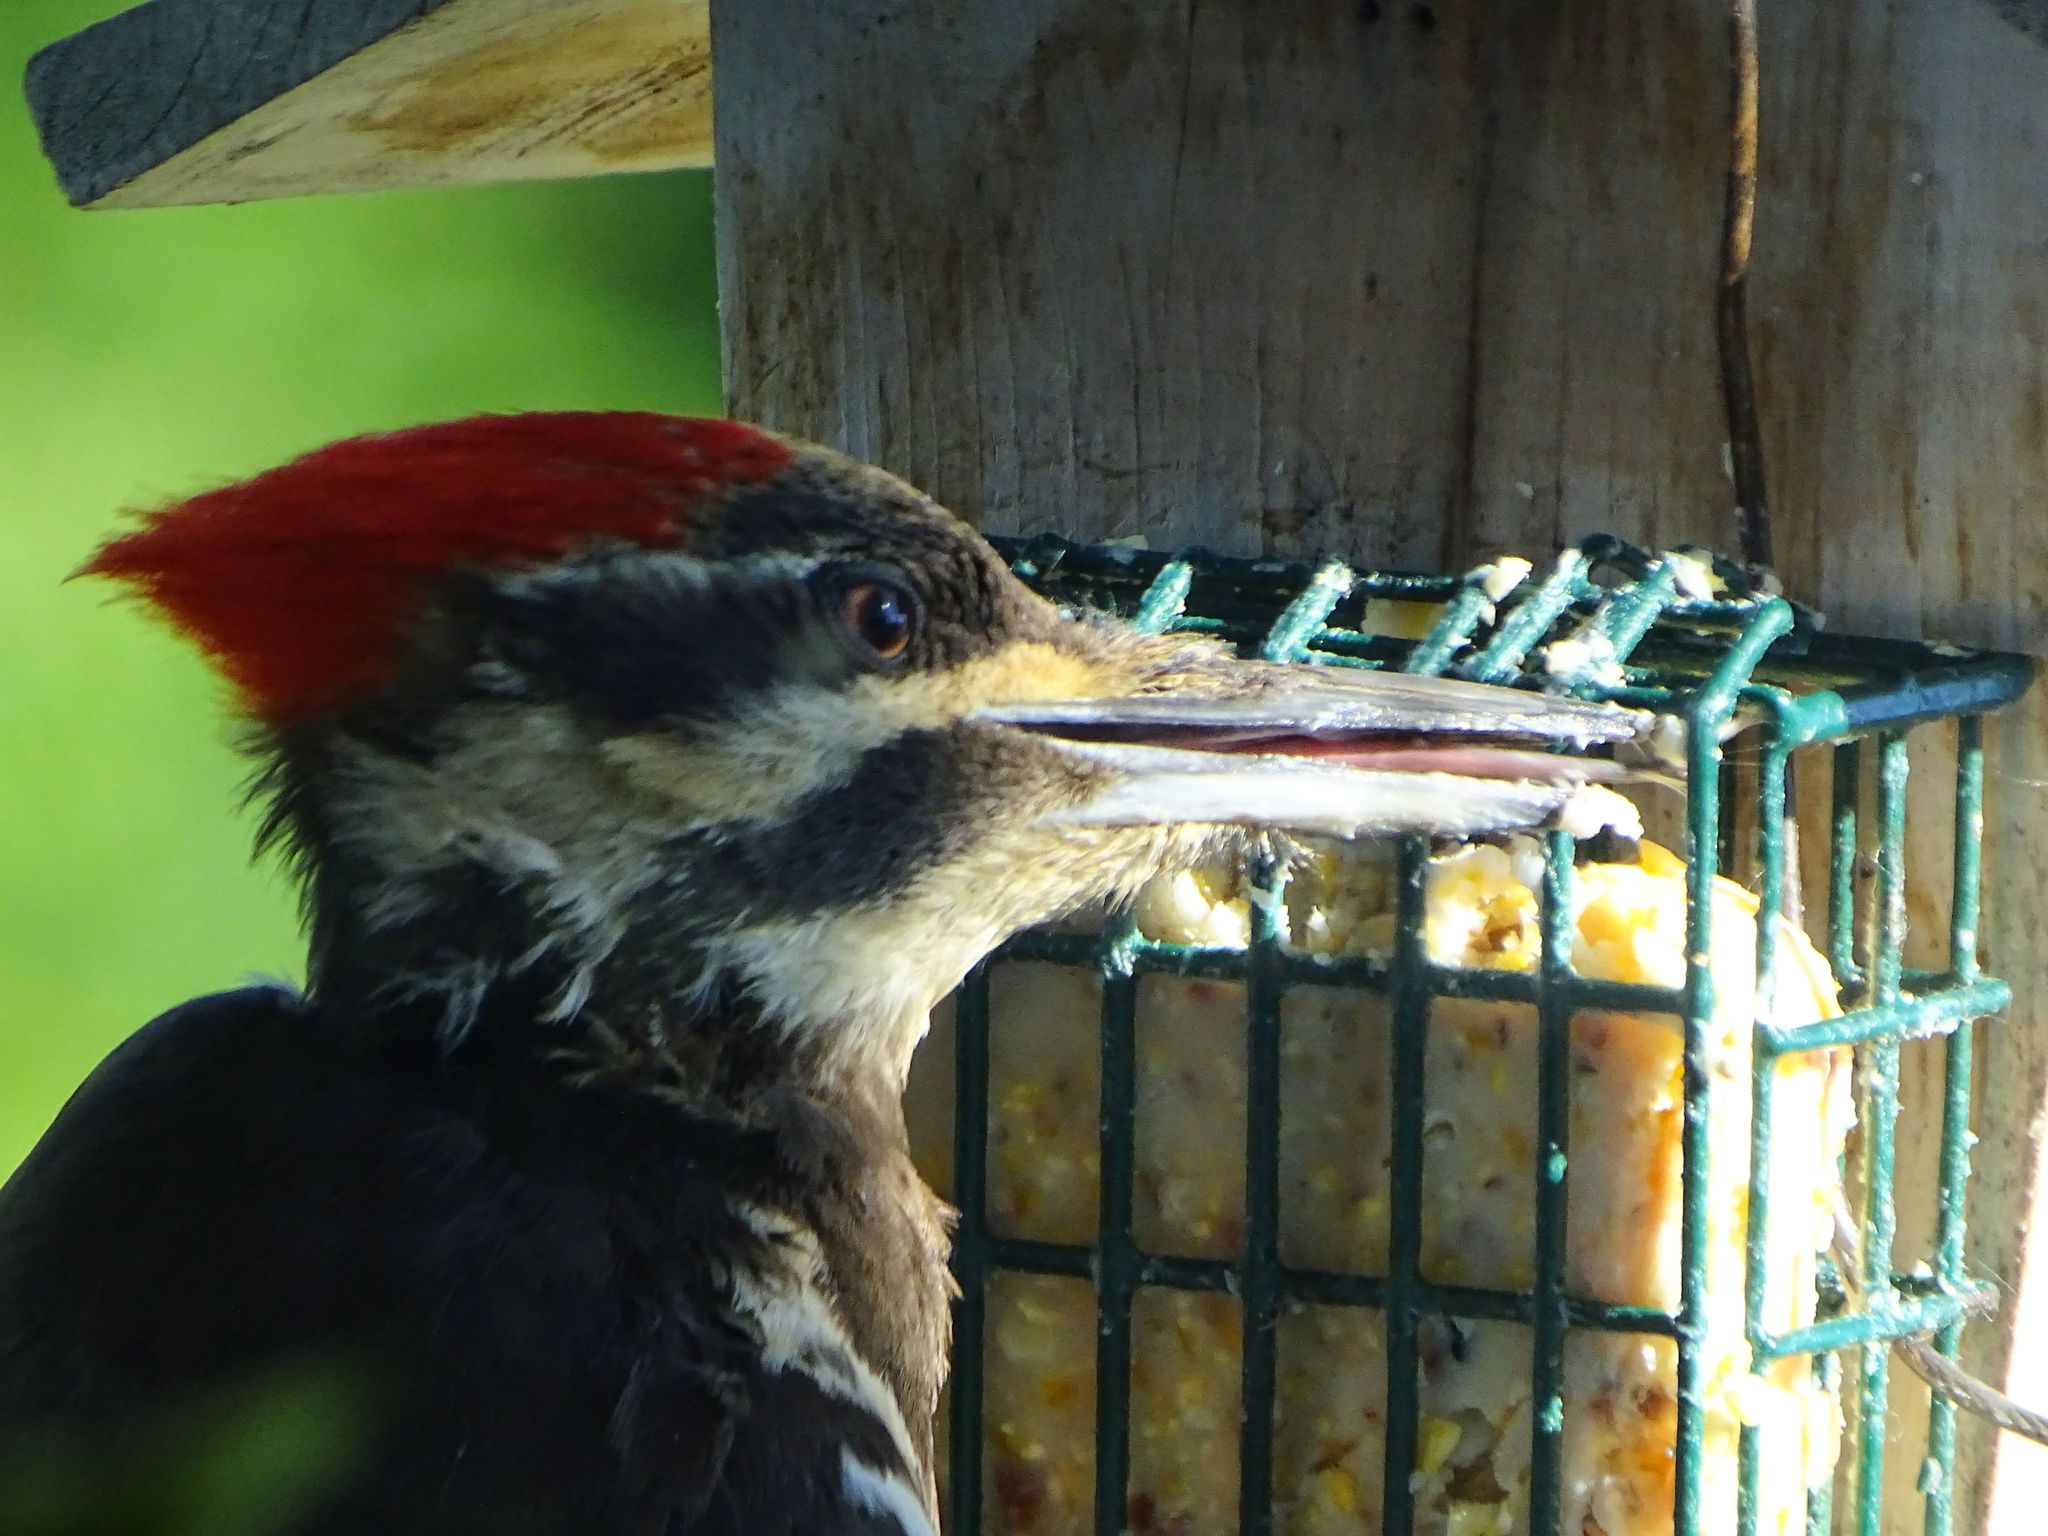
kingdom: Animalia
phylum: Chordata
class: Aves
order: Piciformes
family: Picidae
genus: Dryocopus
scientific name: Dryocopus pileatus
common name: Pileated woodpecker
